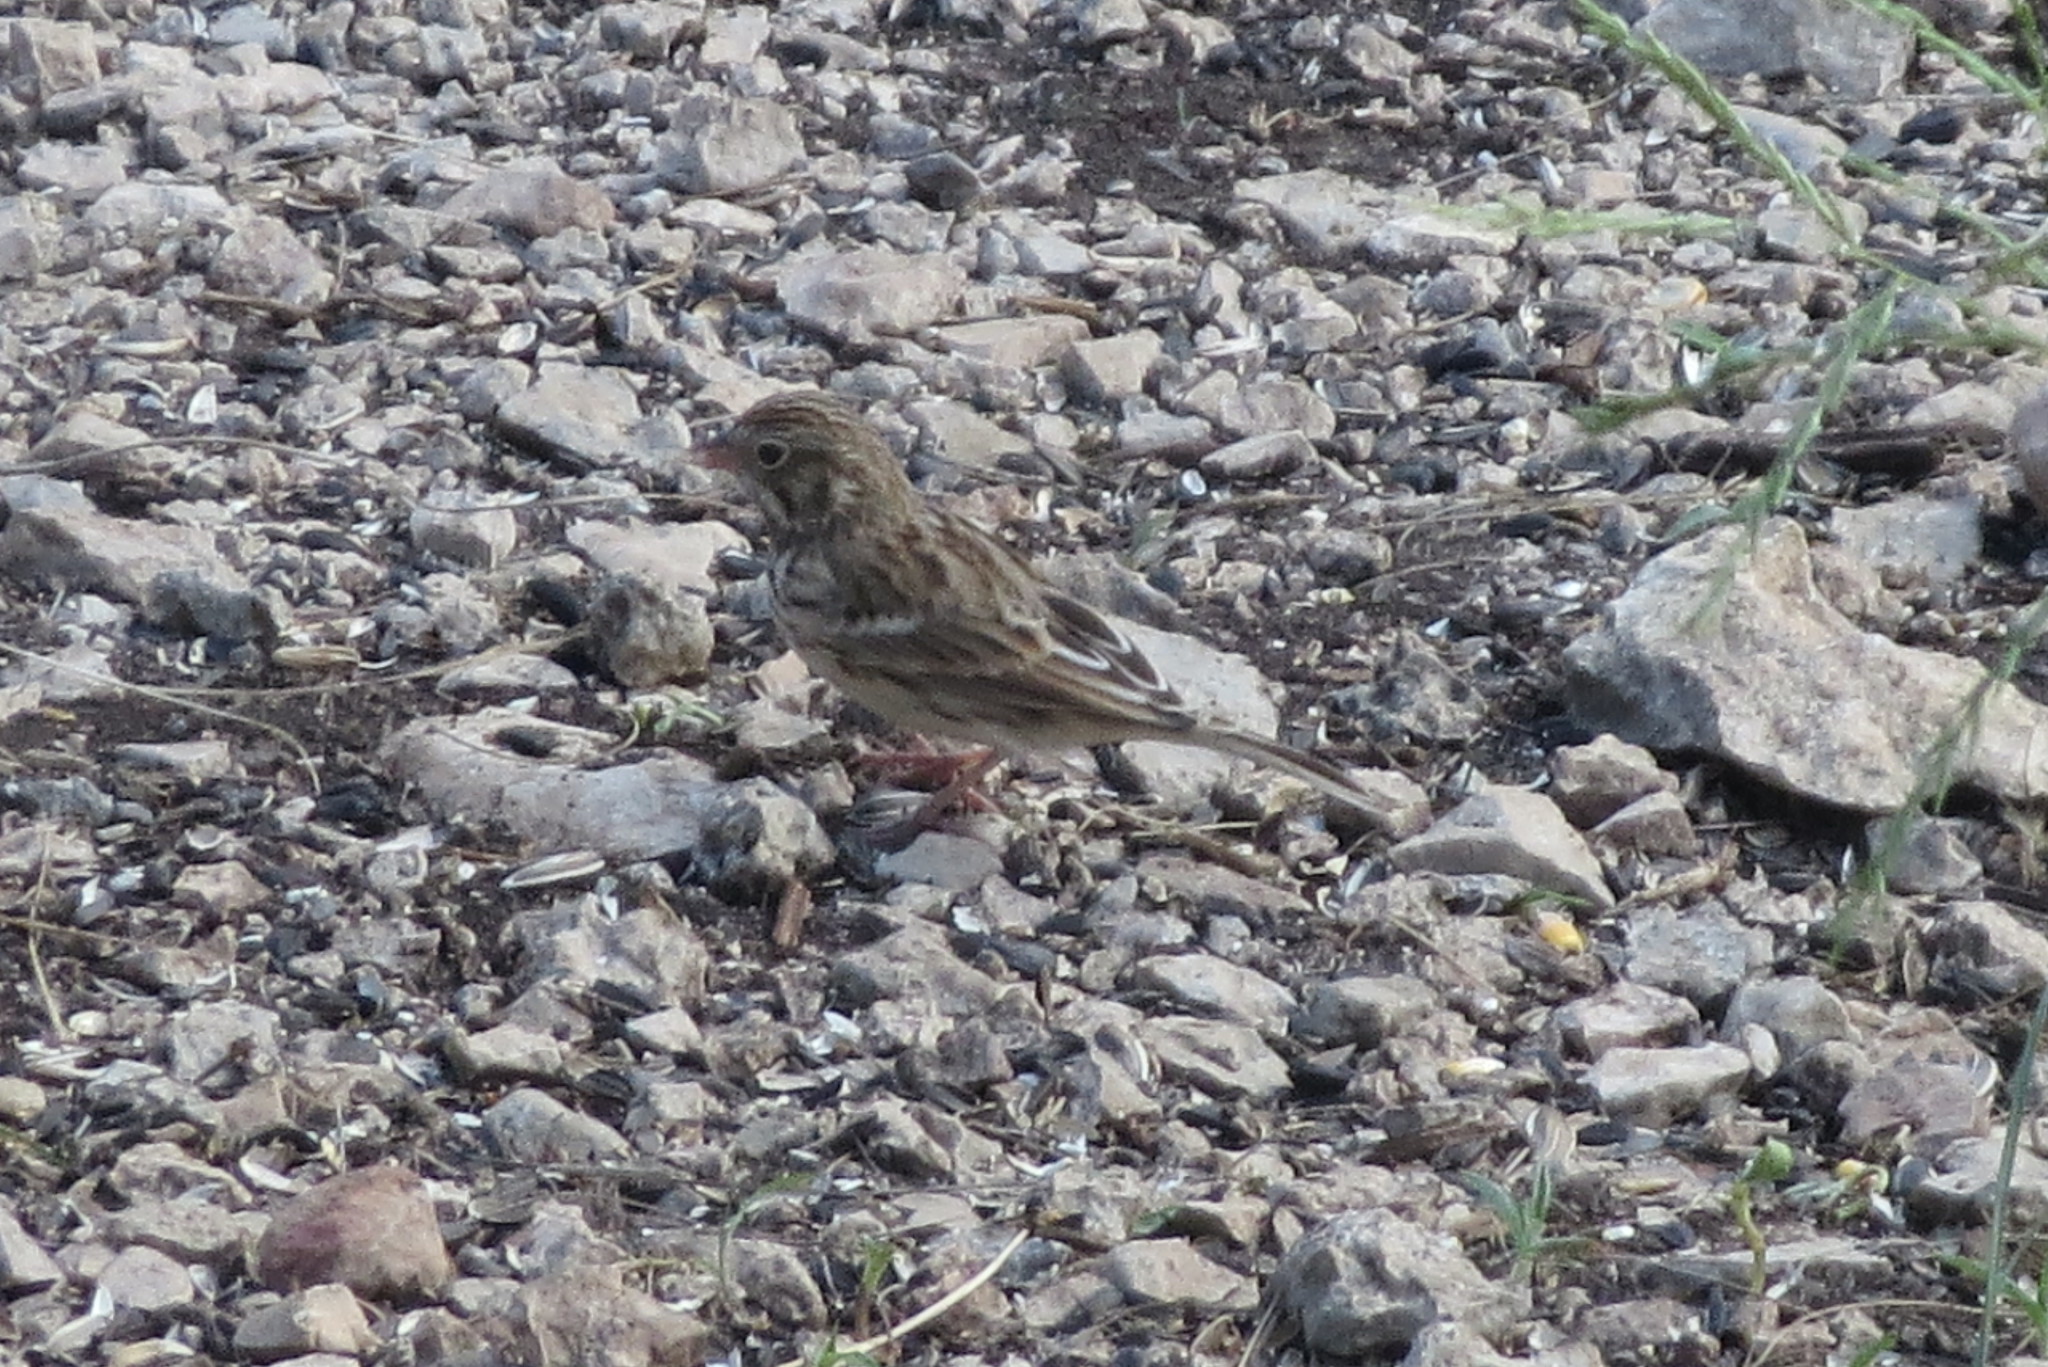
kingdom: Animalia
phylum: Chordata
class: Aves
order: Passeriformes
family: Passerellidae
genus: Pooecetes
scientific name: Pooecetes gramineus
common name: Vesper sparrow
